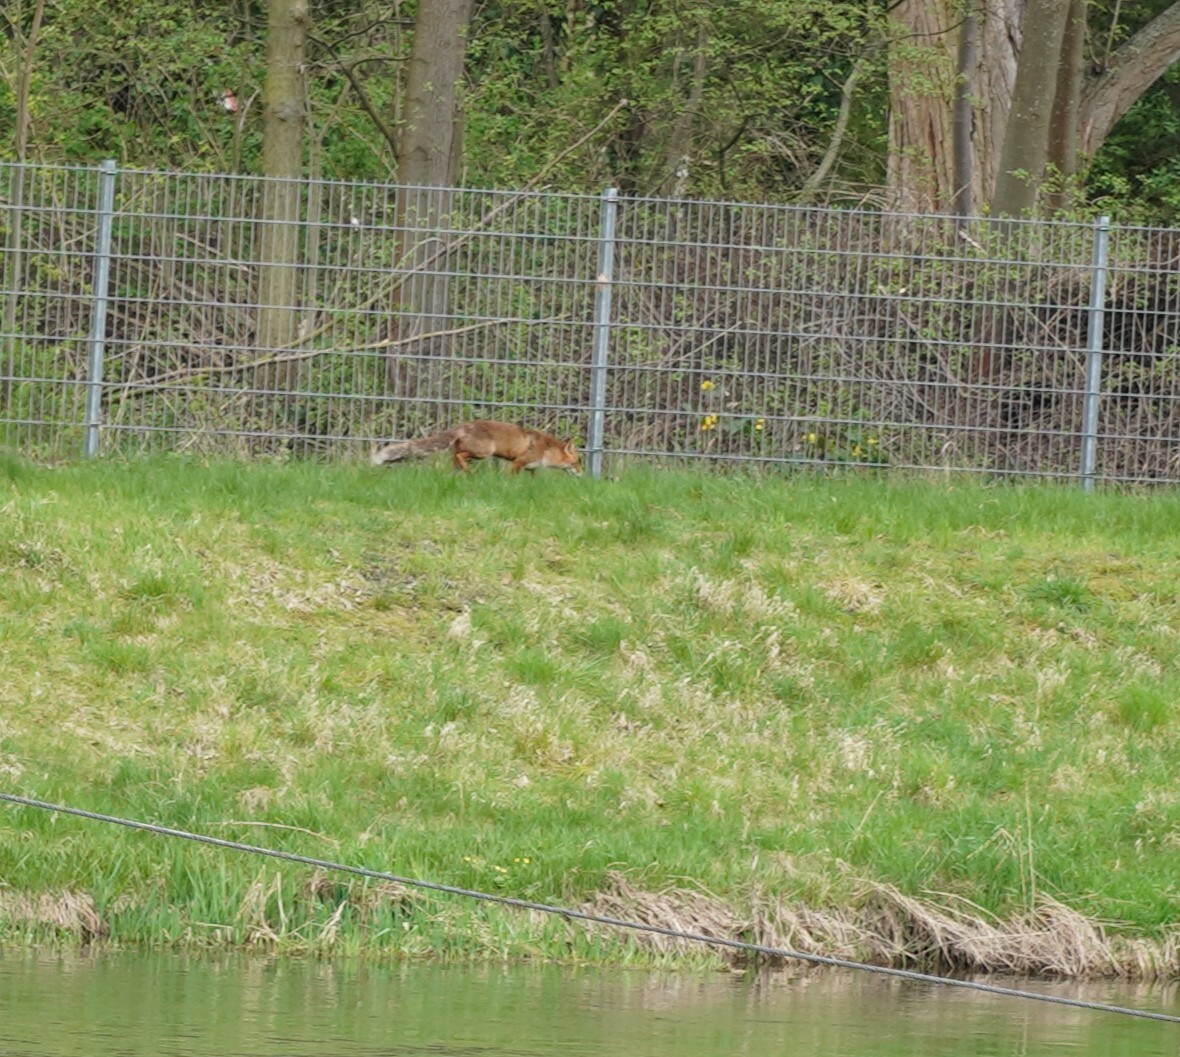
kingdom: Animalia
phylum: Chordata
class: Mammalia
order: Carnivora
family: Canidae
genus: Vulpes
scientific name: Vulpes vulpes
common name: Red fox
